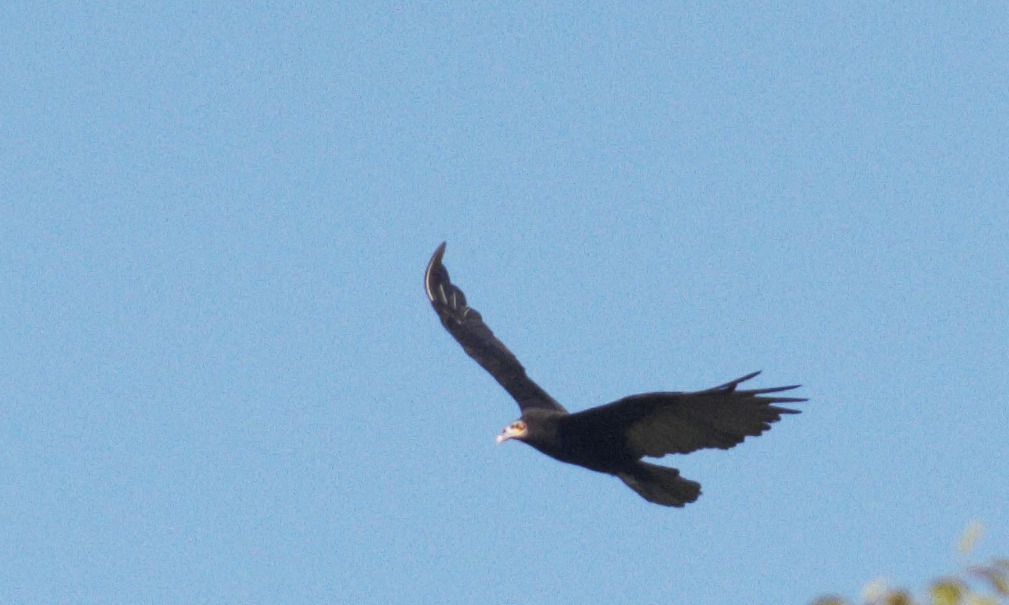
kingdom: Animalia
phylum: Chordata
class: Aves
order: Accipitriformes
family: Cathartidae
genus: Cathartes
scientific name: Cathartes burrovianus
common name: Lesser yellow-headed vulture
